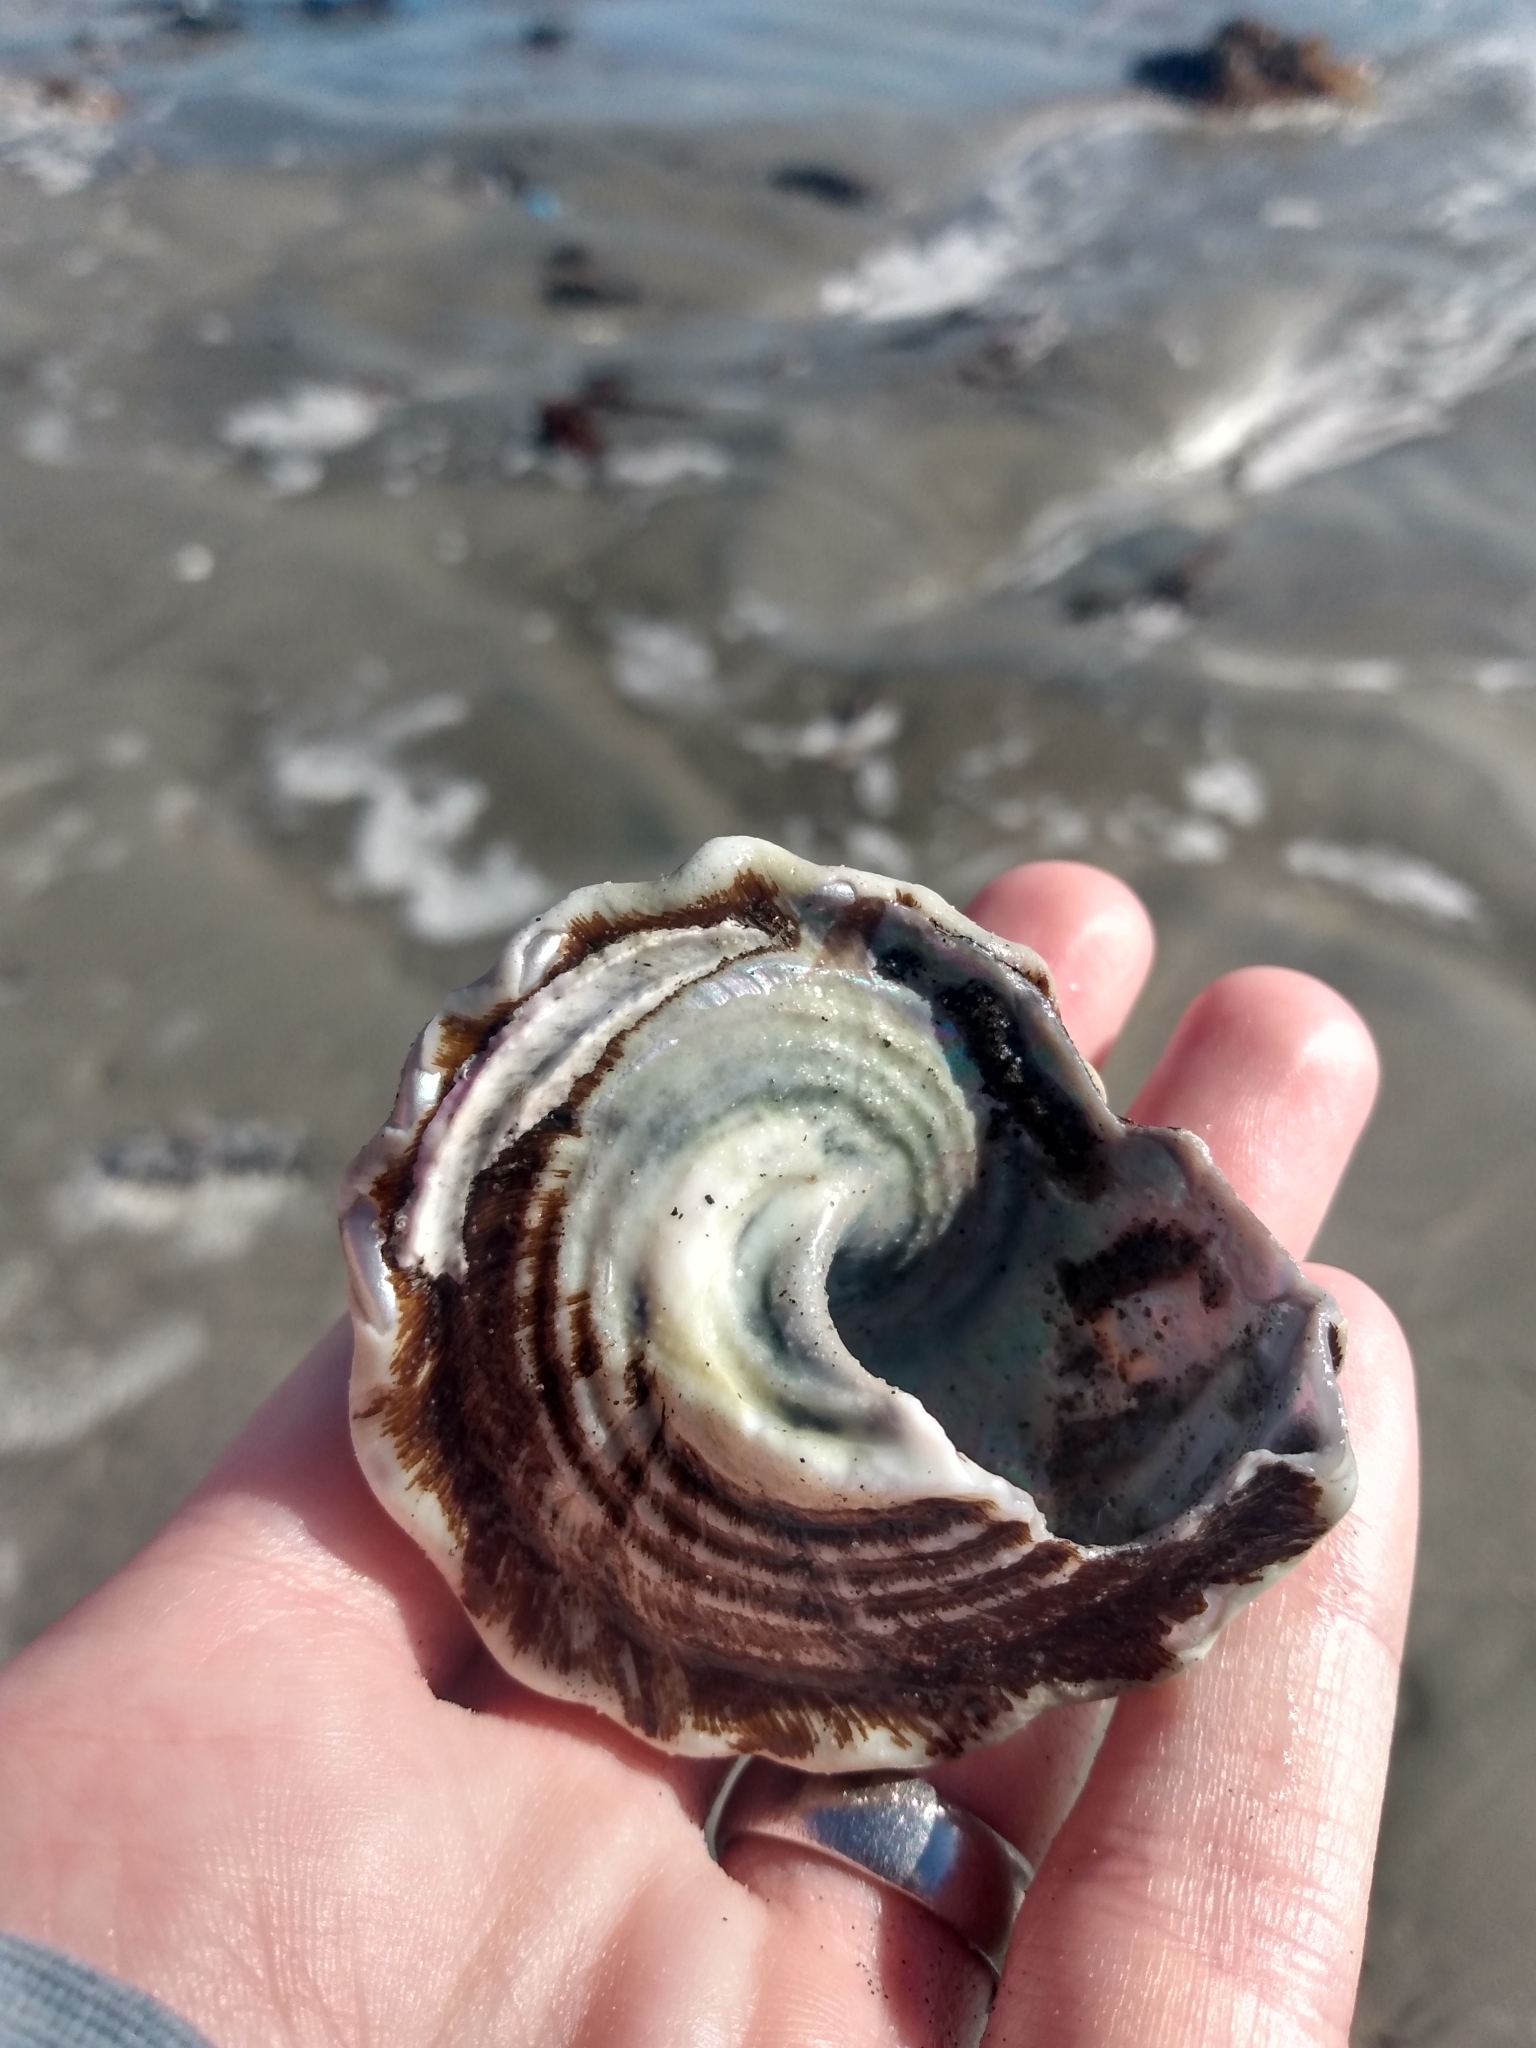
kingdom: Animalia
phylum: Mollusca
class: Gastropoda
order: Trochida
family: Turbinidae
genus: Megastraea
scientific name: Megastraea undosa
